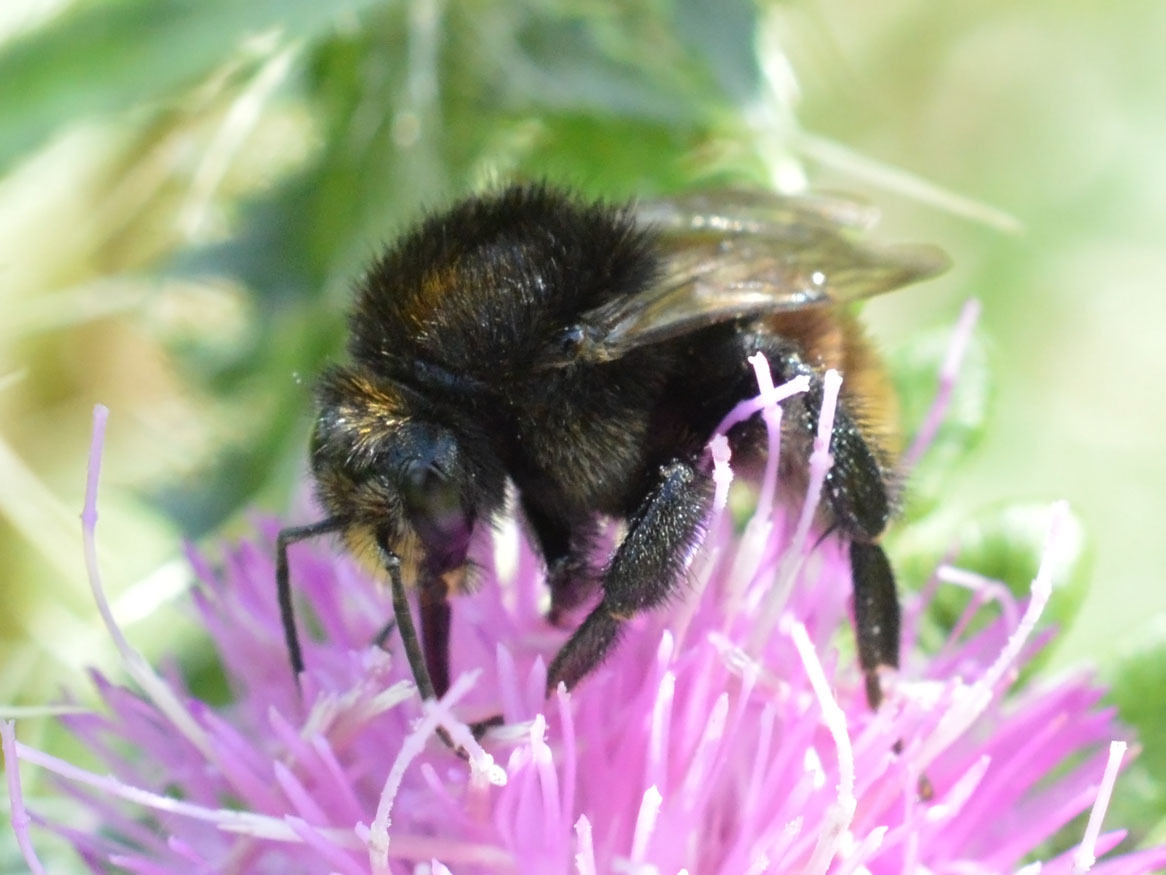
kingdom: Animalia
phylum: Arthropoda
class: Insecta
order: Hymenoptera
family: Apidae
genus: Bombus
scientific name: Bombus humilis
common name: Brown-banded carder-bee
